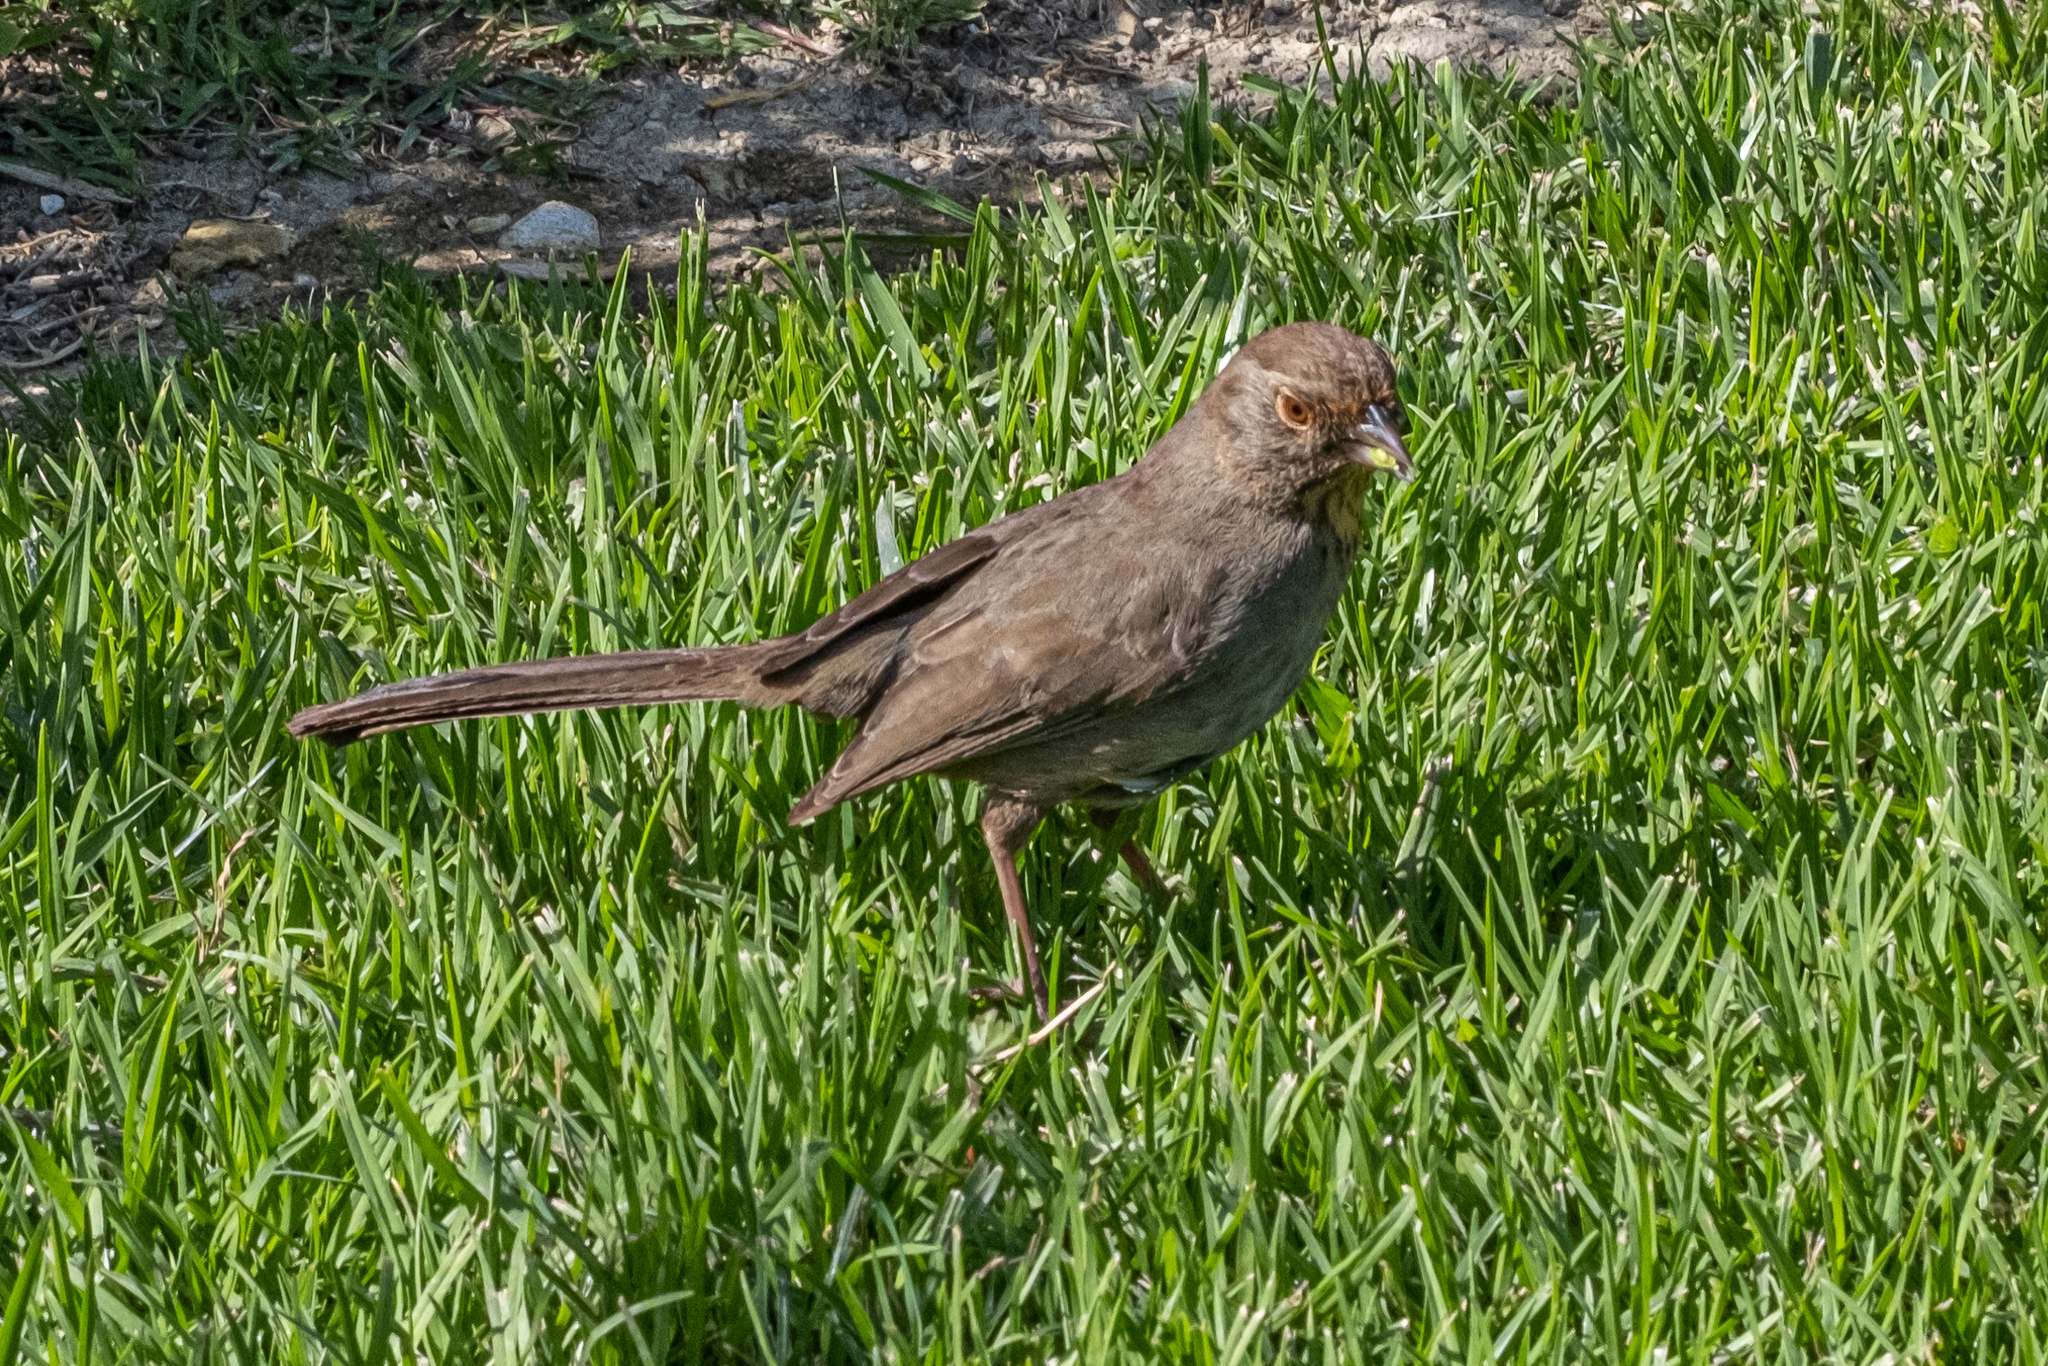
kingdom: Animalia
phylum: Chordata
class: Aves
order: Passeriformes
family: Passerellidae
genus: Melozone
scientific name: Melozone crissalis
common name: California towhee
